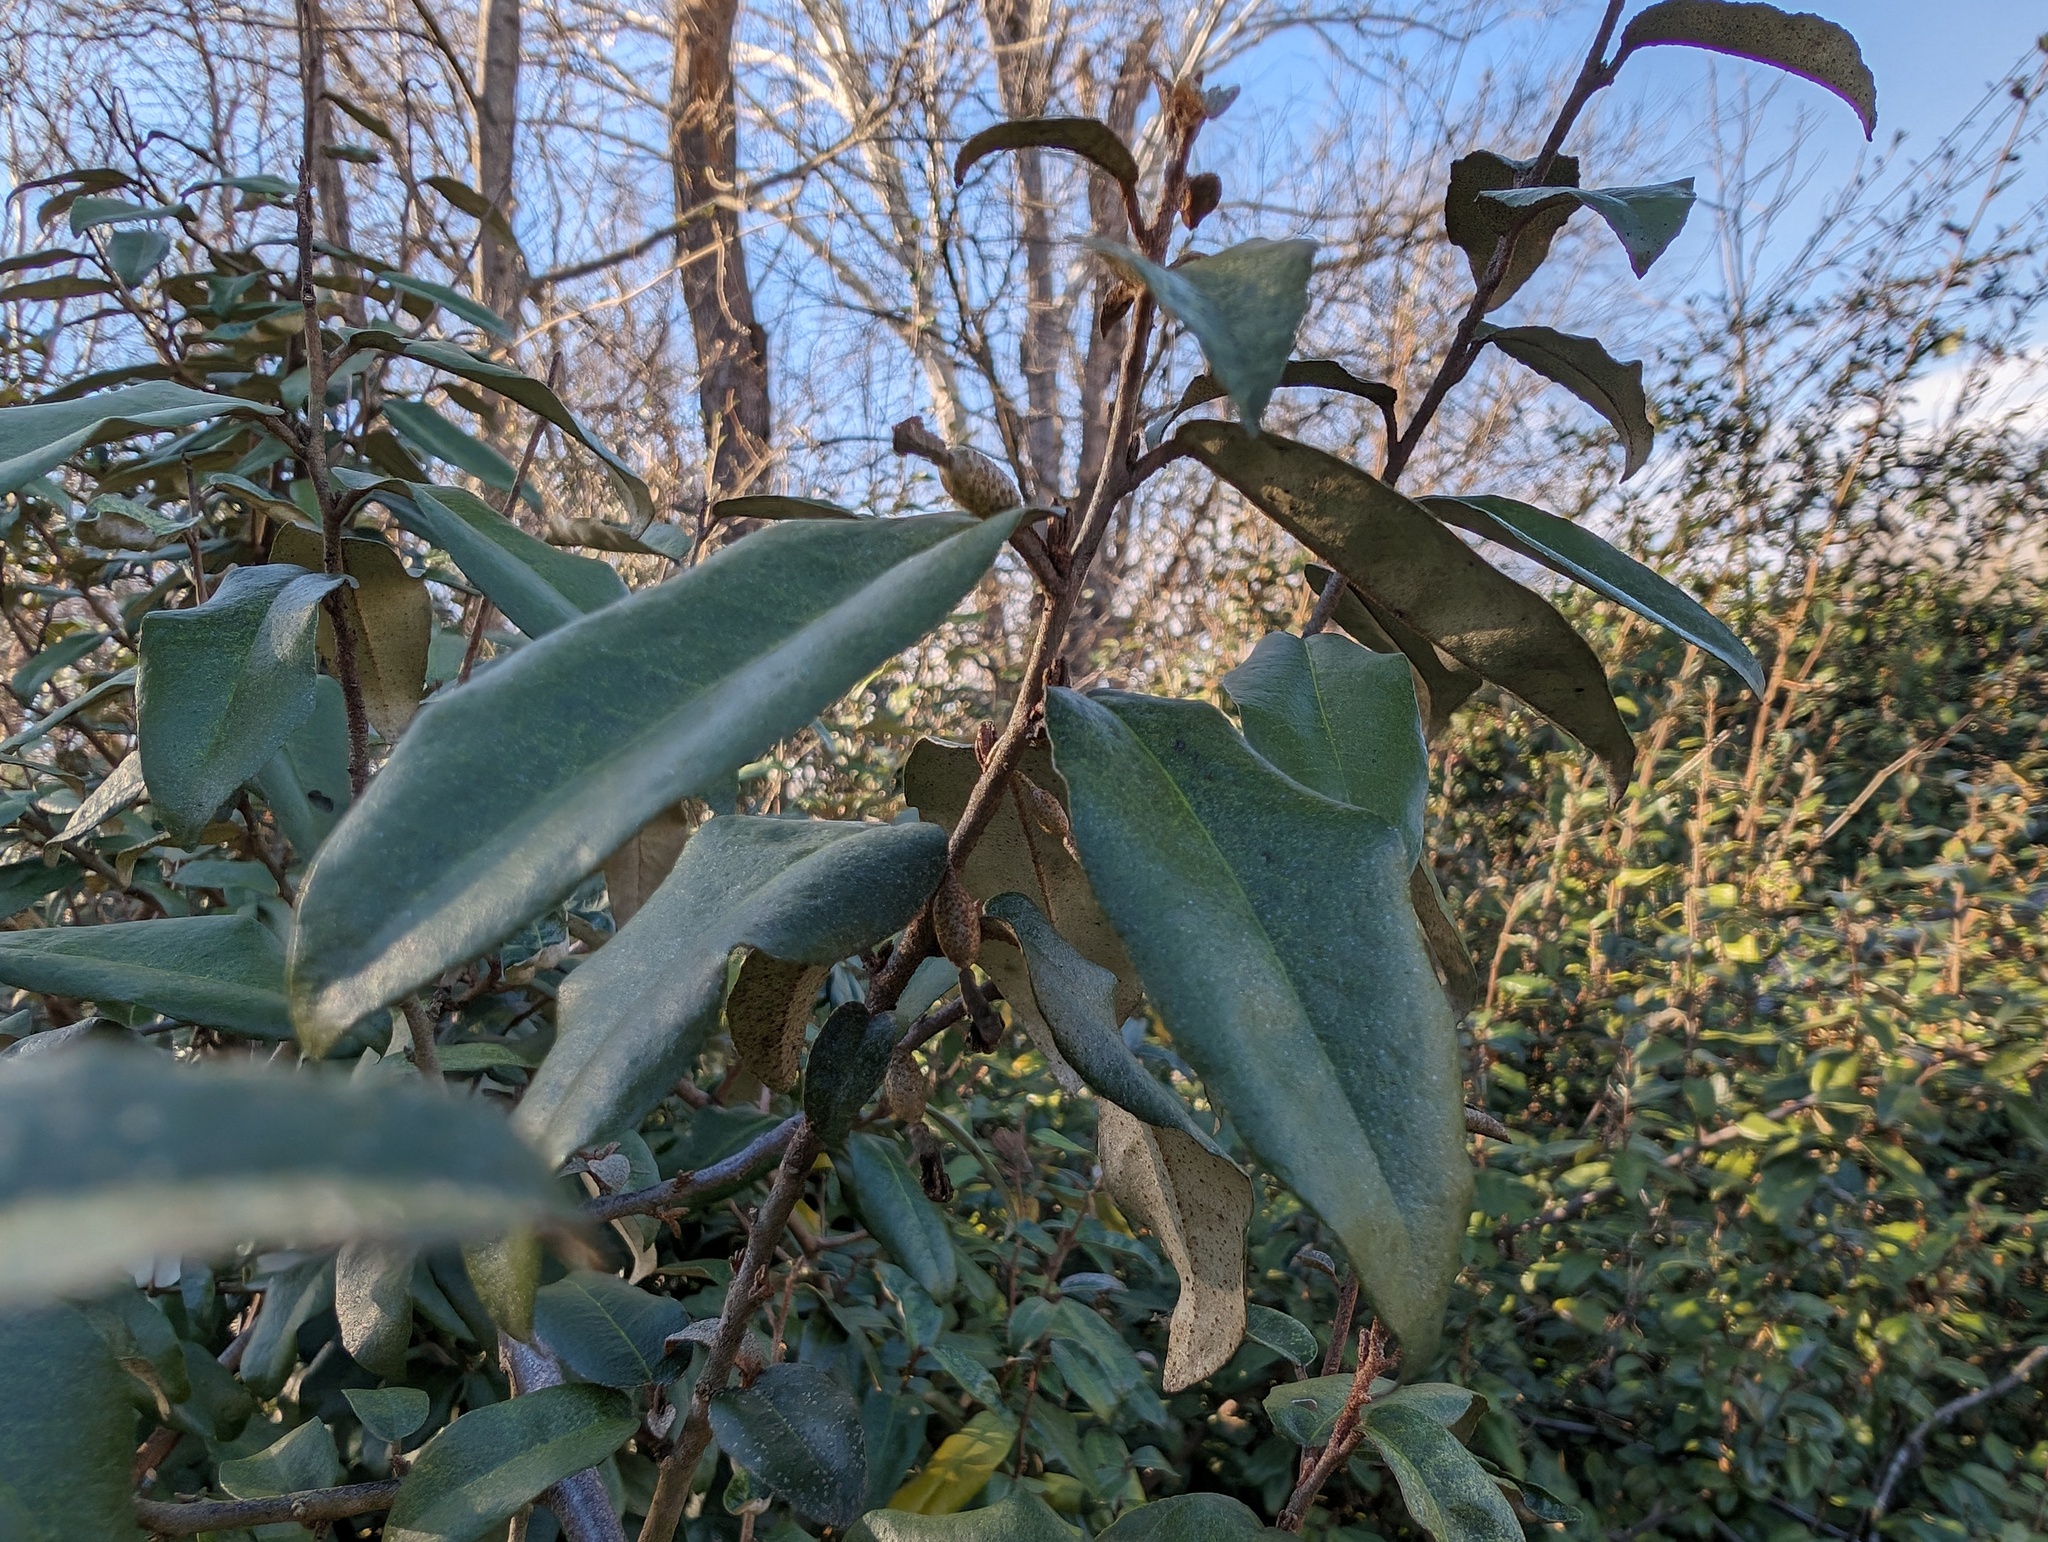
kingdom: Plantae
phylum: Tracheophyta
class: Magnoliopsida
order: Rosales
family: Elaeagnaceae
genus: Elaeagnus
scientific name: Elaeagnus umbellata
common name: Autumn olive
